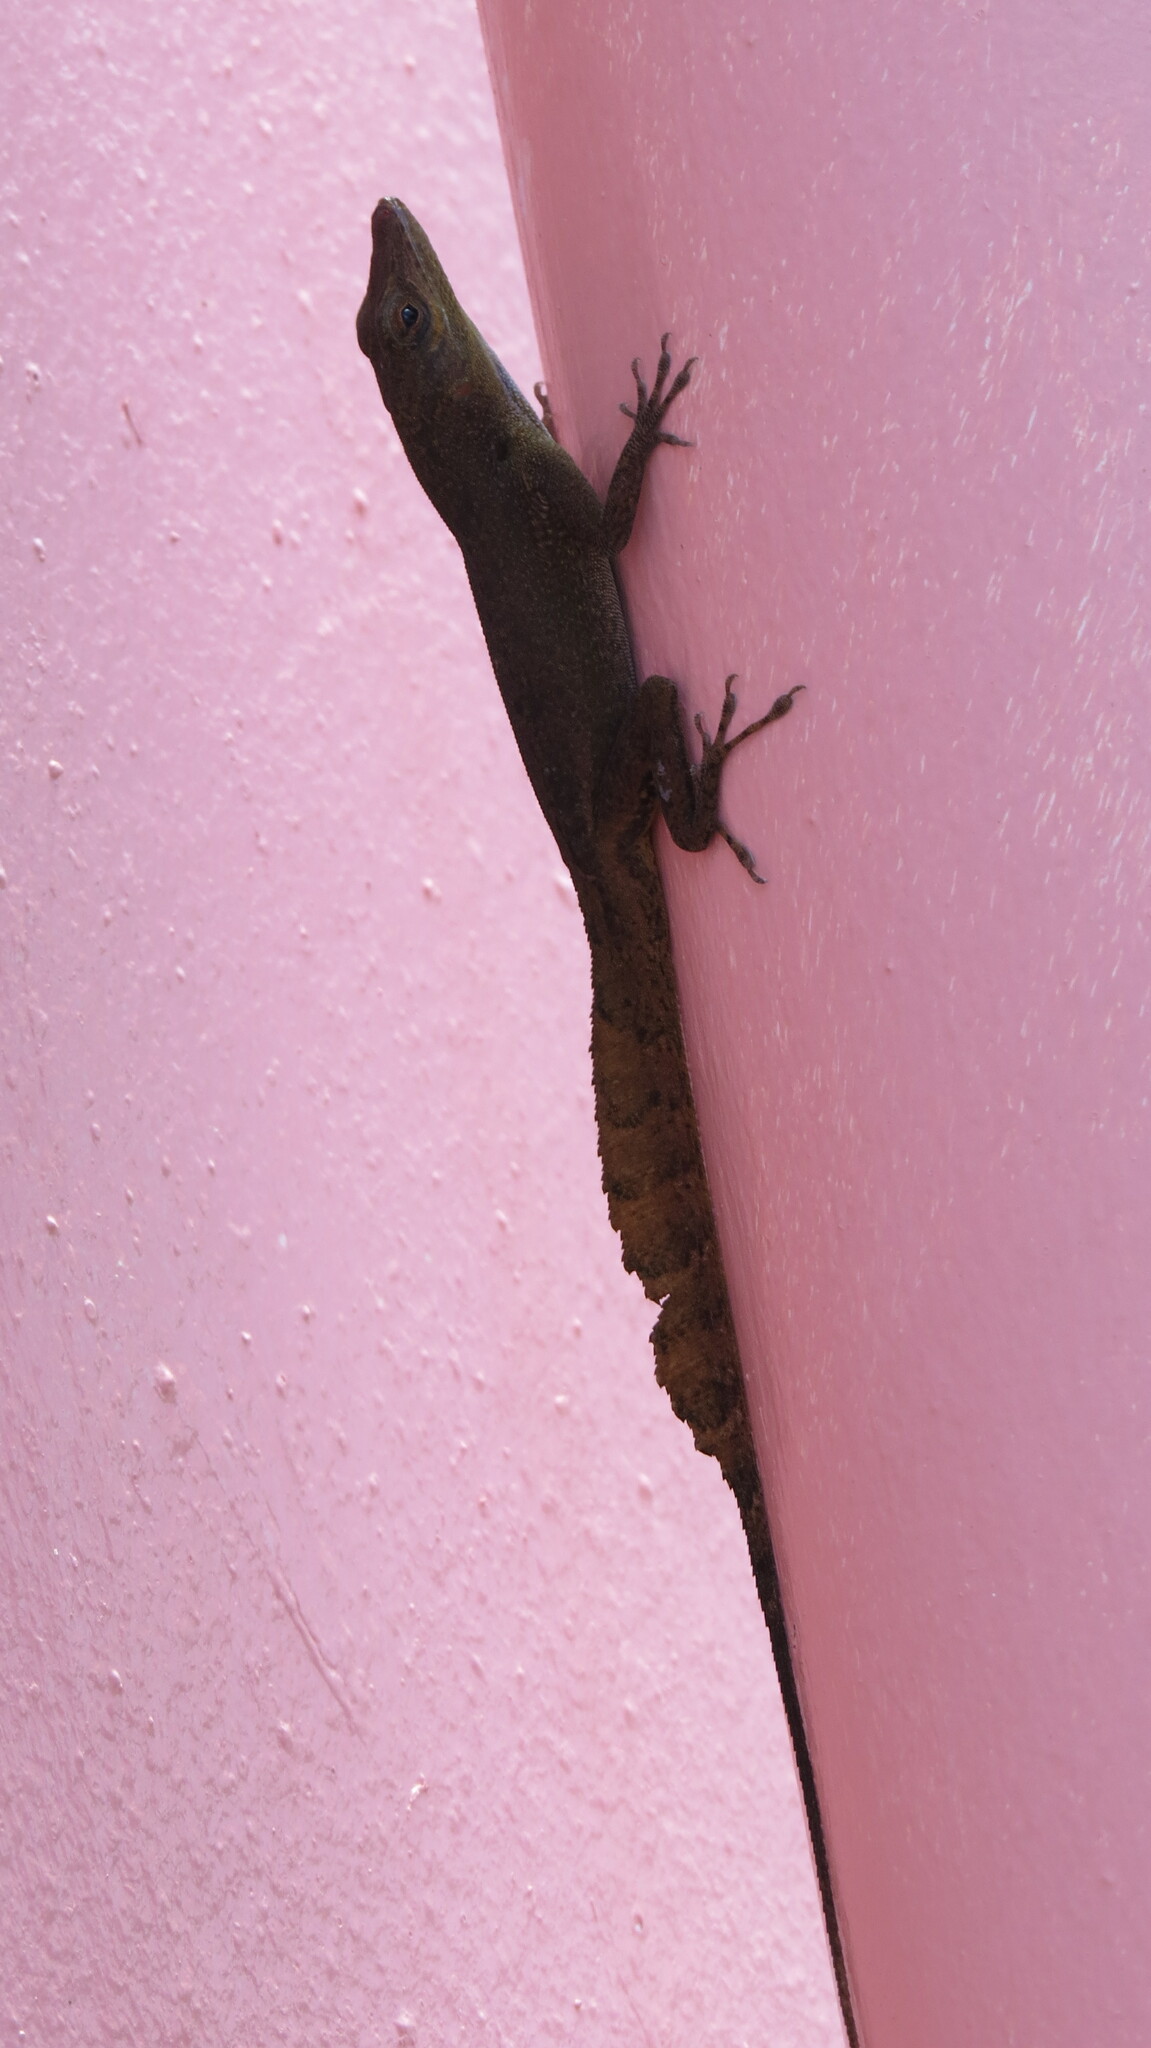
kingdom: Animalia
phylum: Chordata
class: Squamata
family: Dactyloidae
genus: Anolis
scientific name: Anolis acutus
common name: Saint croix's anole
